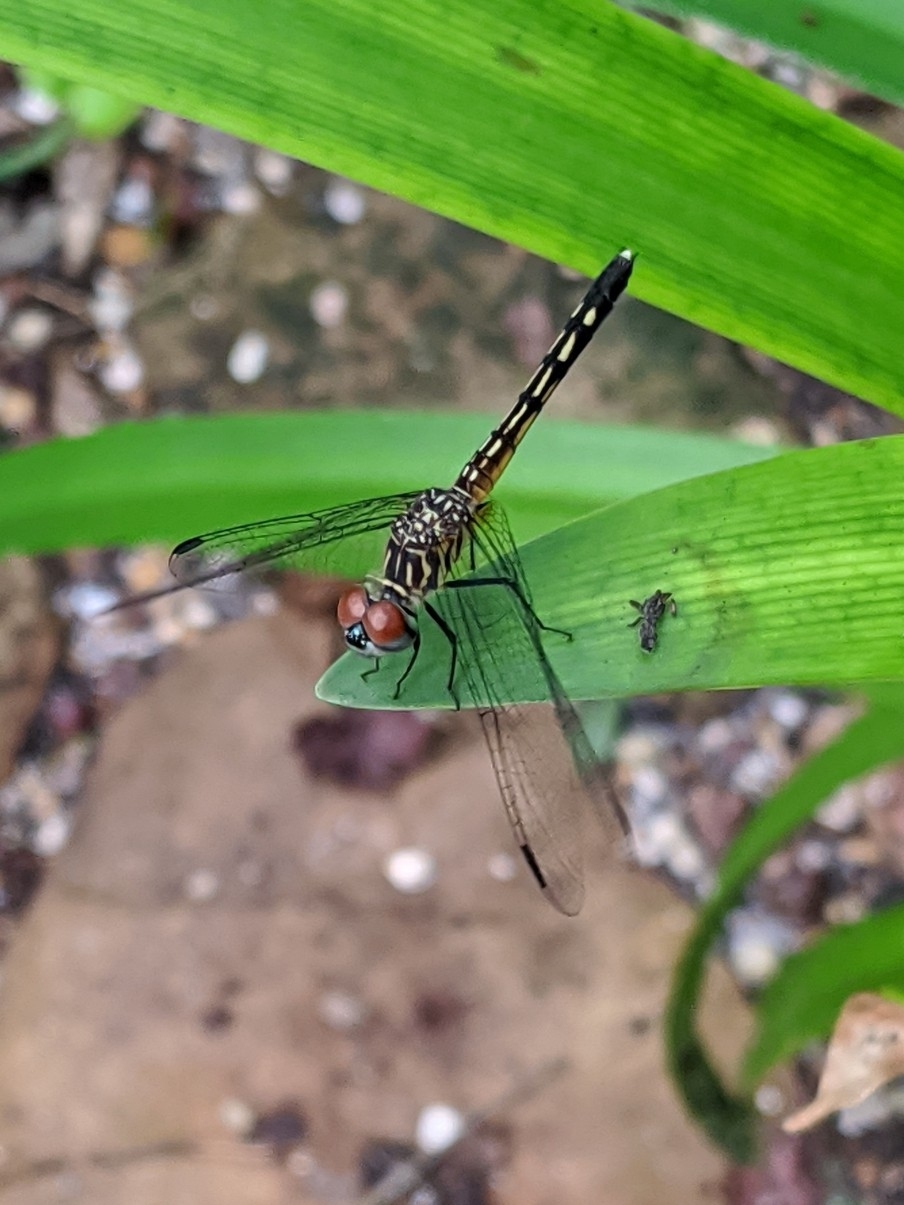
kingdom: Animalia
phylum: Arthropoda
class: Insecta
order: Odonata
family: Libellulidae
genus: Pachydiplax
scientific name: Pachydiplax longipennis
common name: Blue dasher
